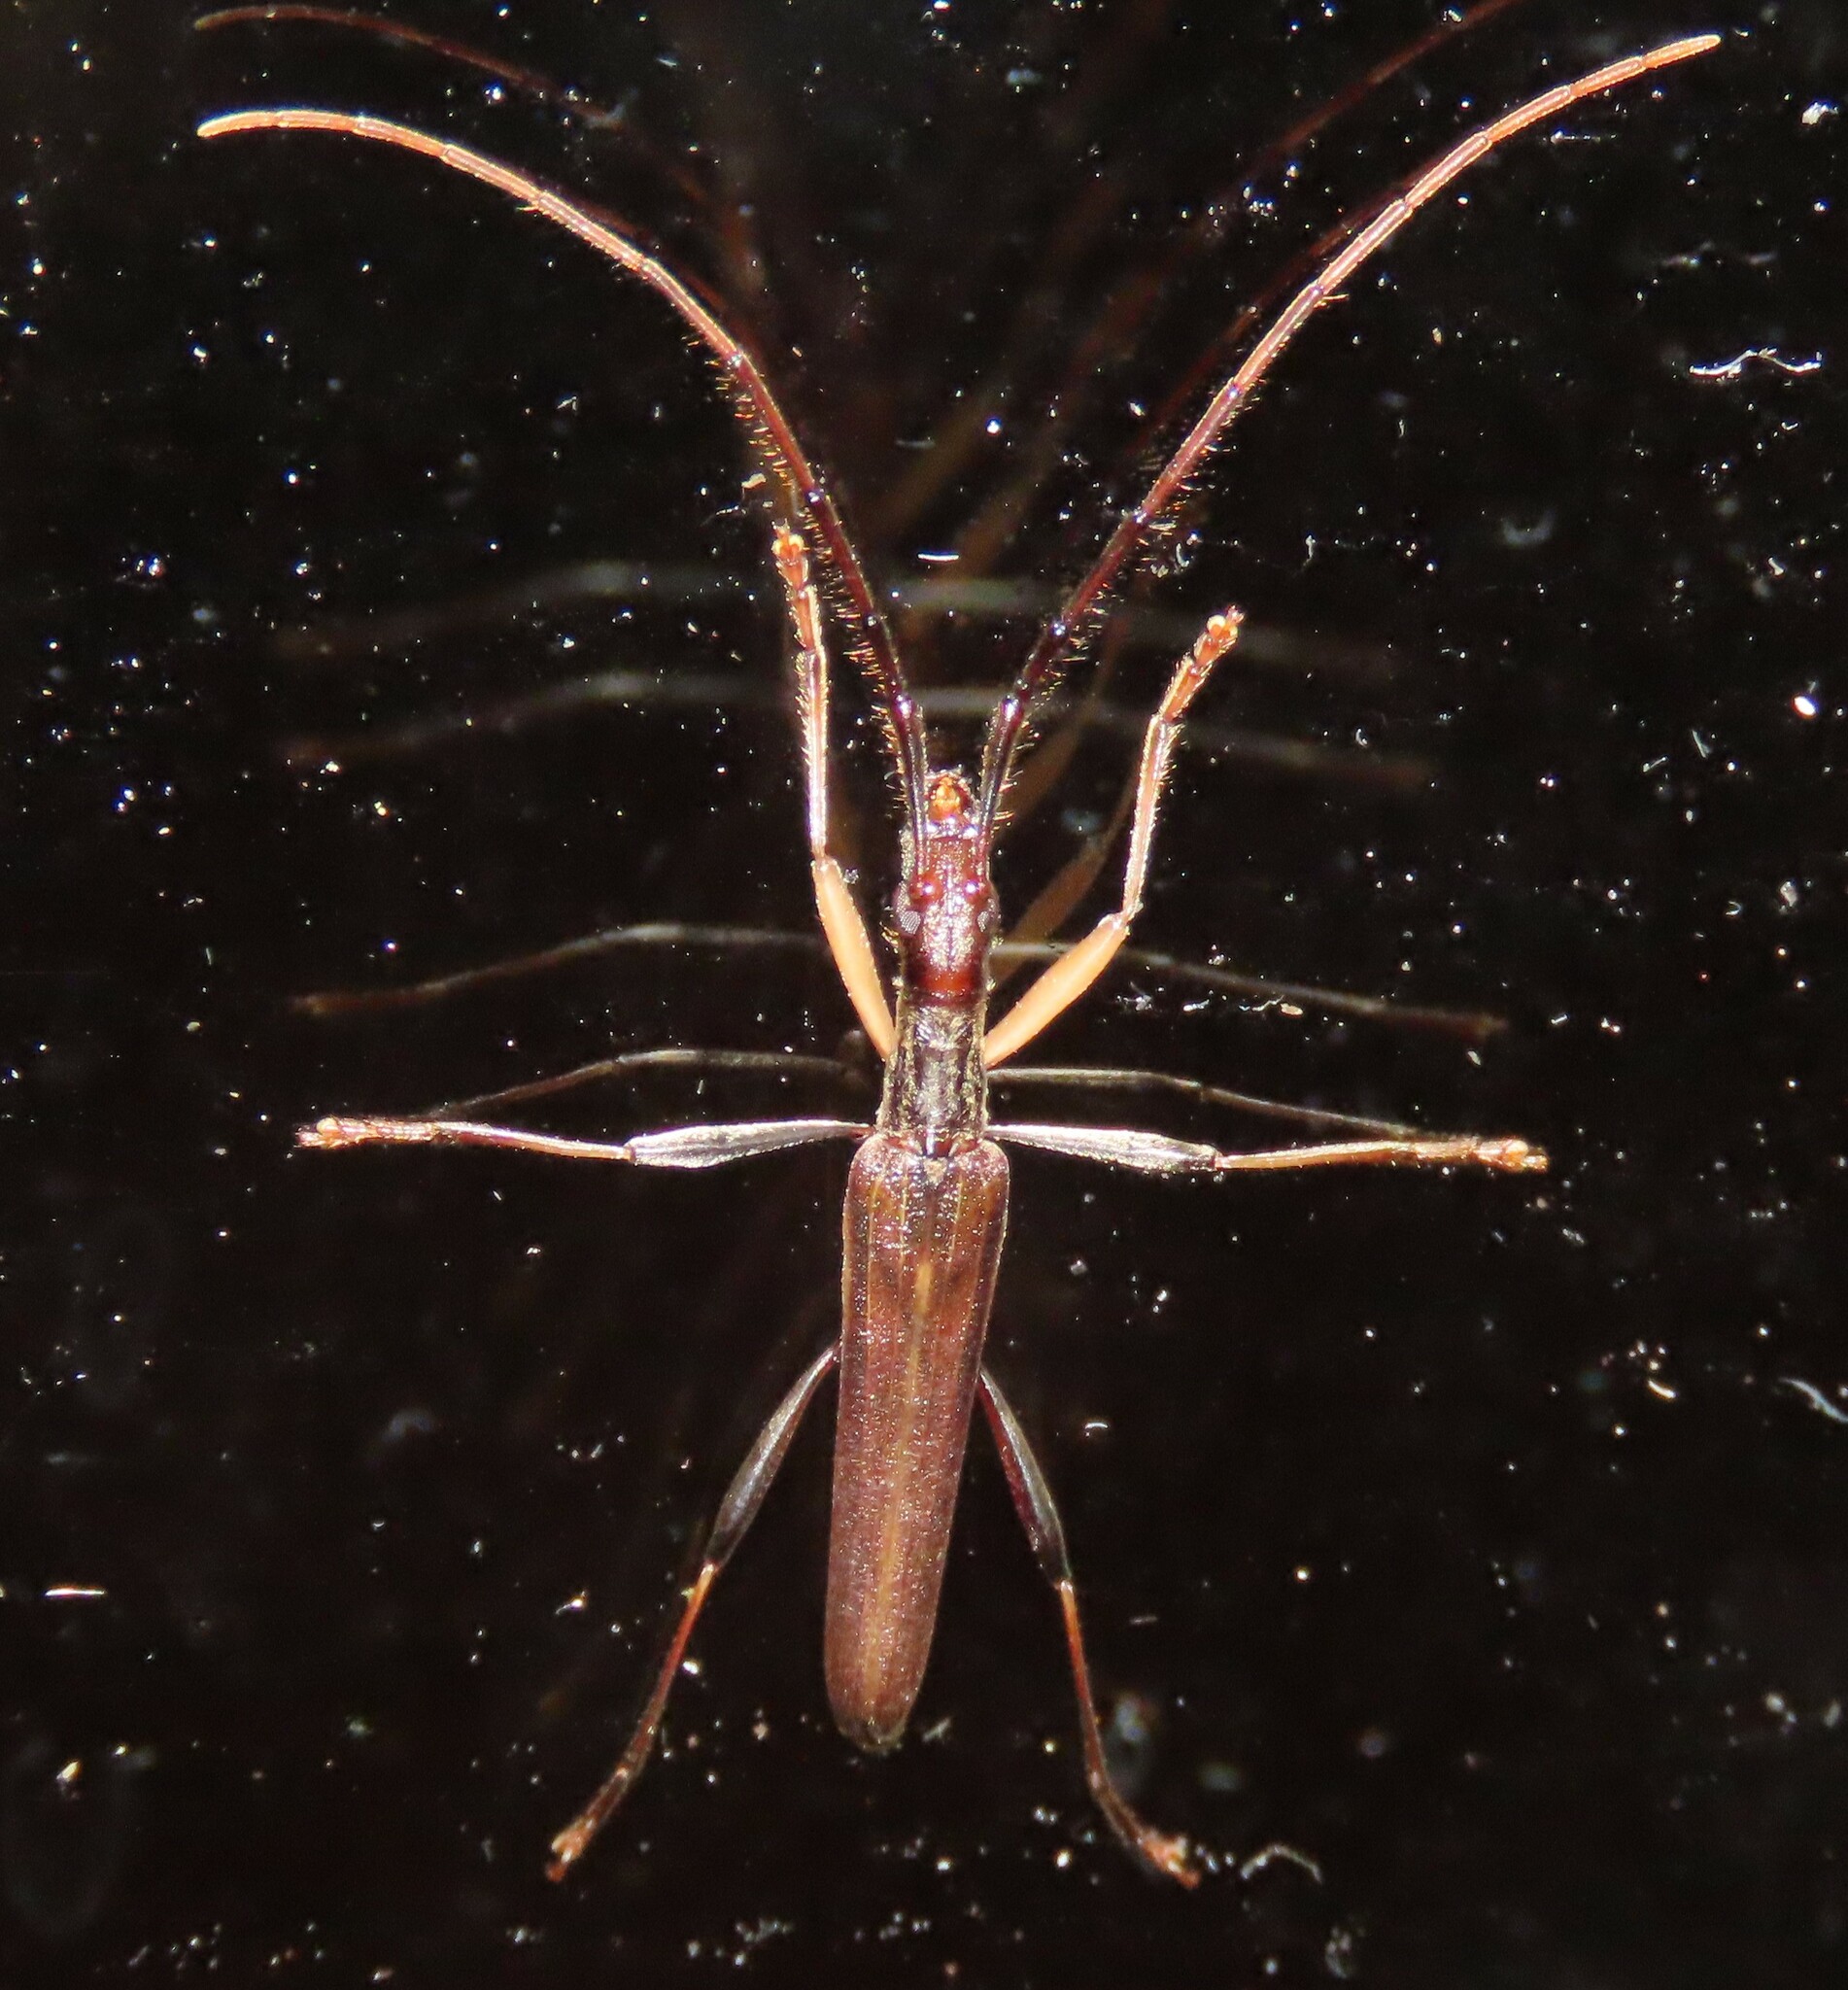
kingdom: Animalia
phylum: Arthropoda
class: Insecta
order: Coleoptera
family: Cerambycidae
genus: Stenopotes
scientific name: Stenopotes pallidus
